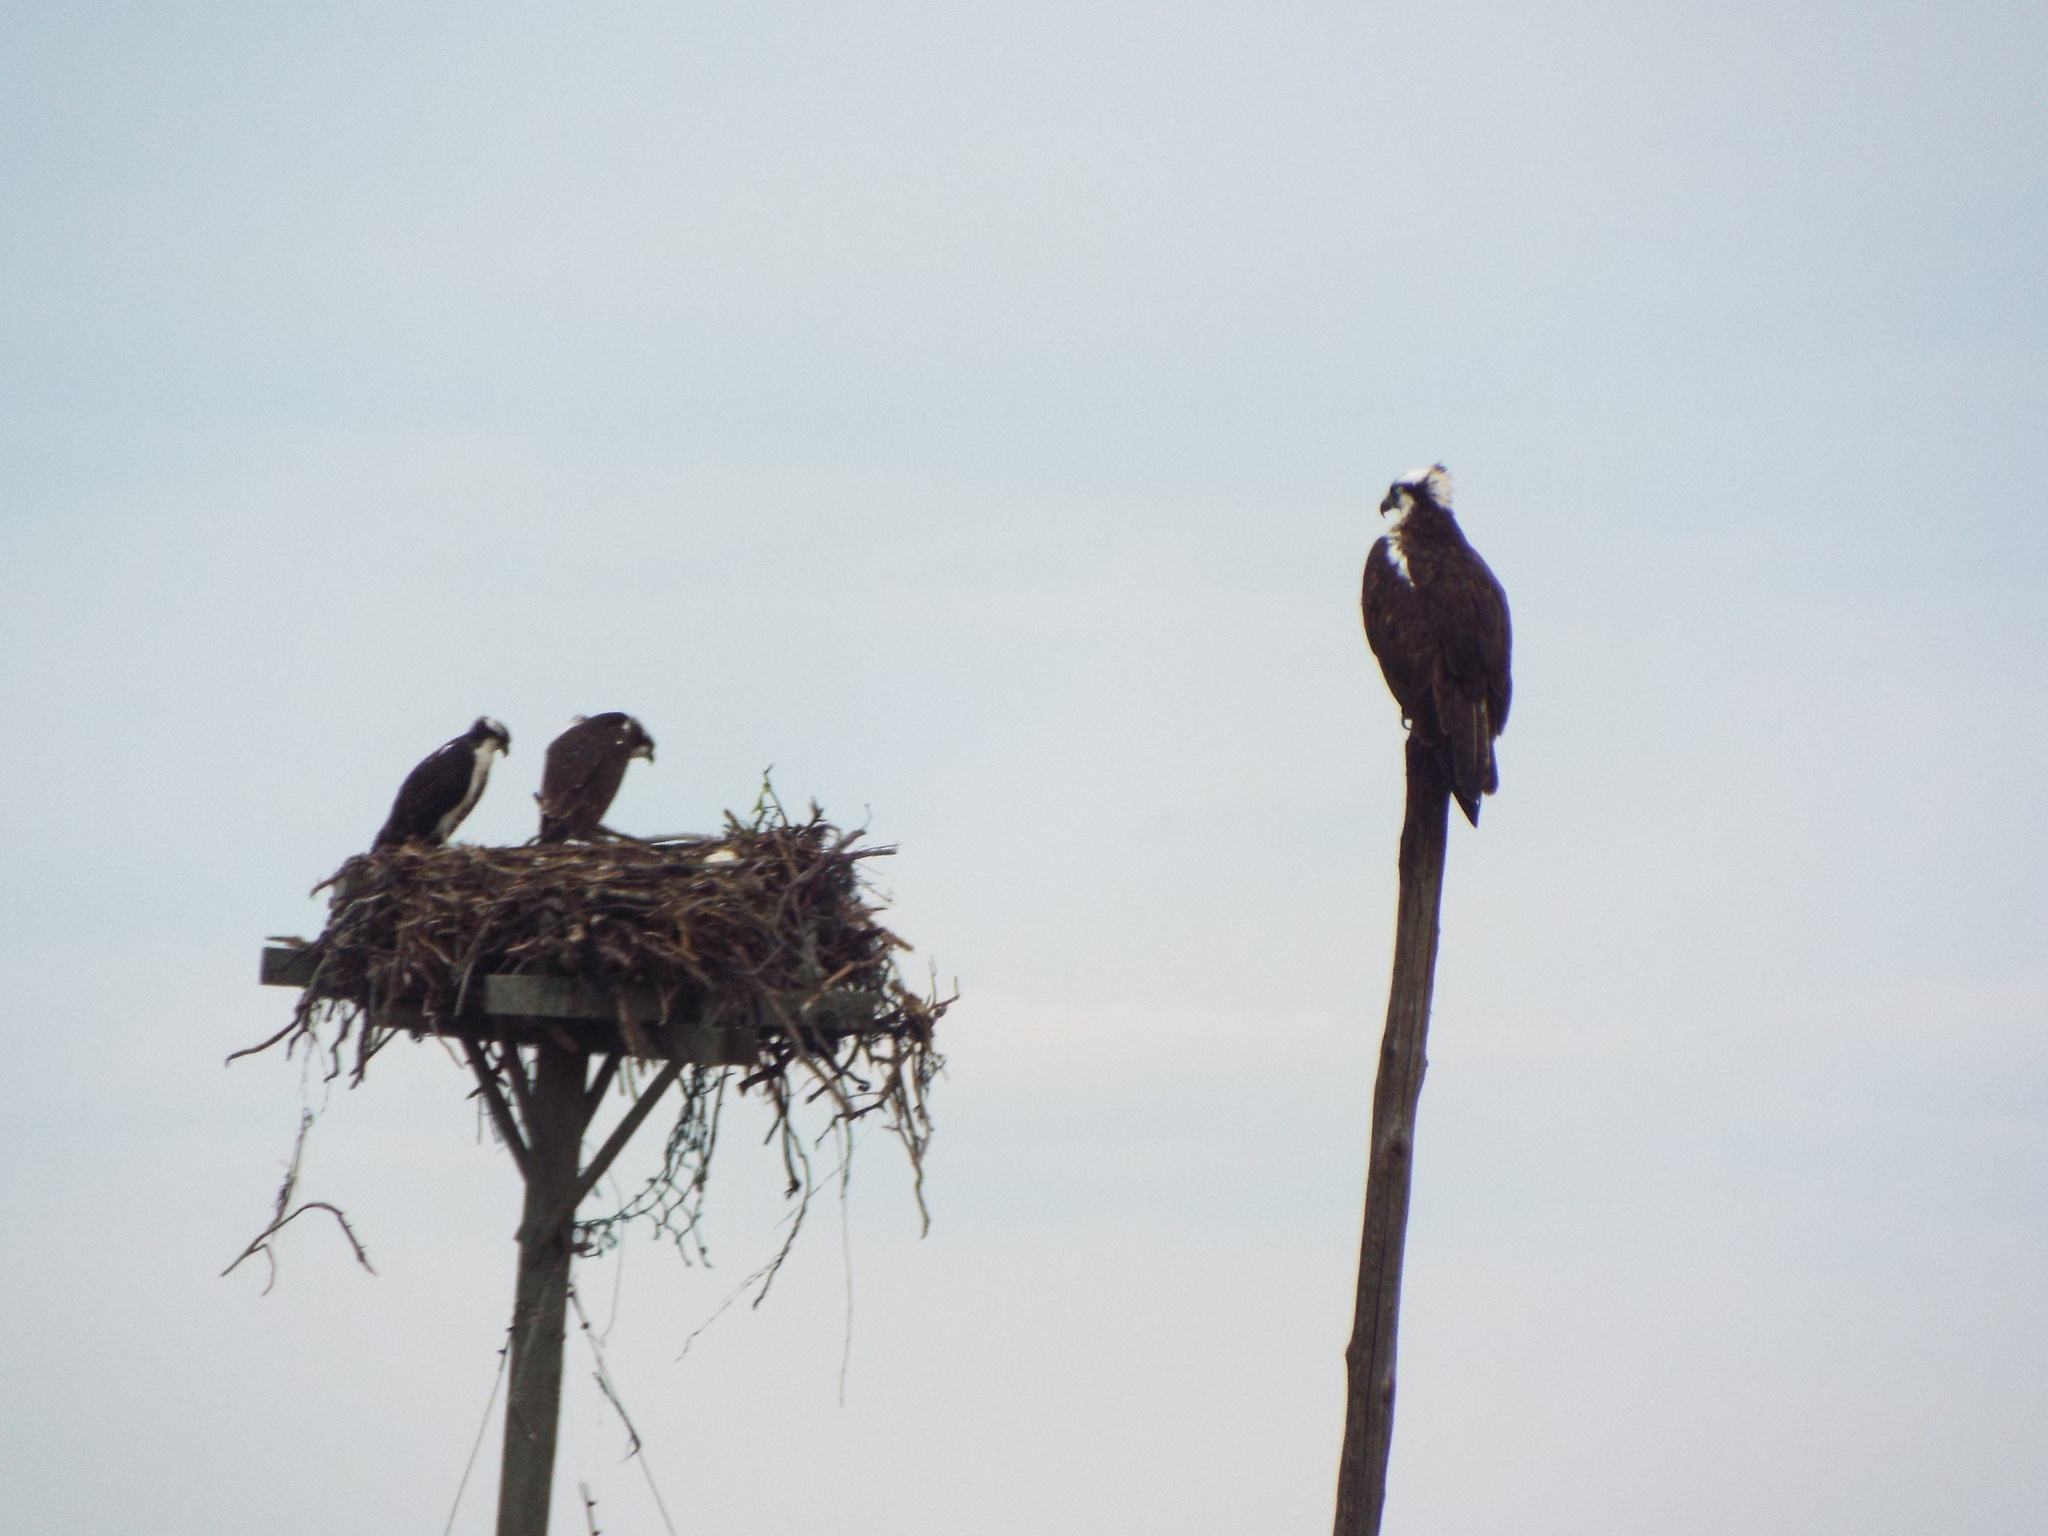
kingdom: Animalia
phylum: Chordata
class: Aves
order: Accipitriformes
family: Pandionidae
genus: Pandion
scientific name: Pandion haliaetus
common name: Osprey
